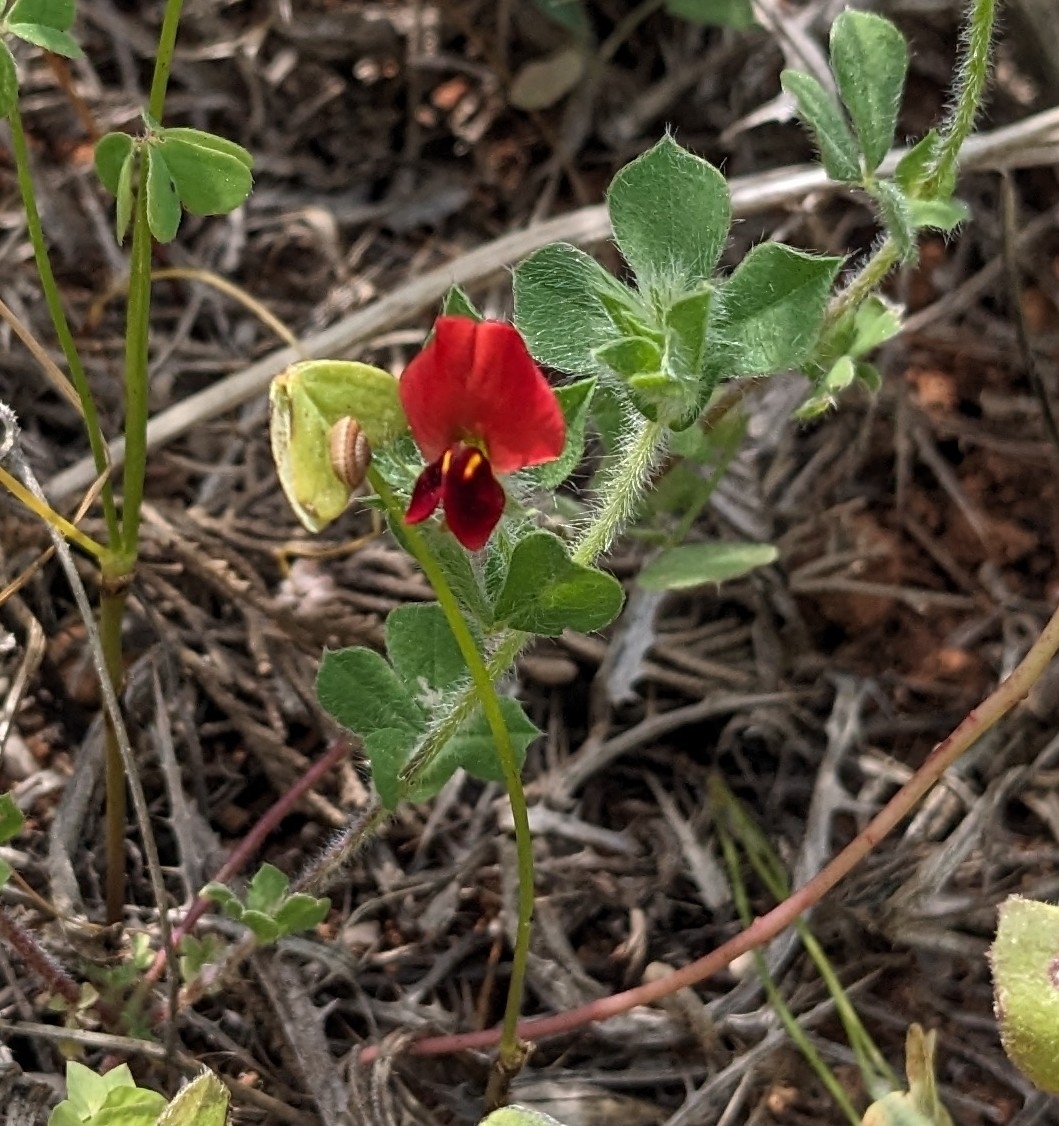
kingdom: Plantae
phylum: Tracheophyta
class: Magnoliopsida
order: Fabales
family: Fabaceae
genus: Lotus
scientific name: Lotus tetragonolobus
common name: Asparagus-pea
